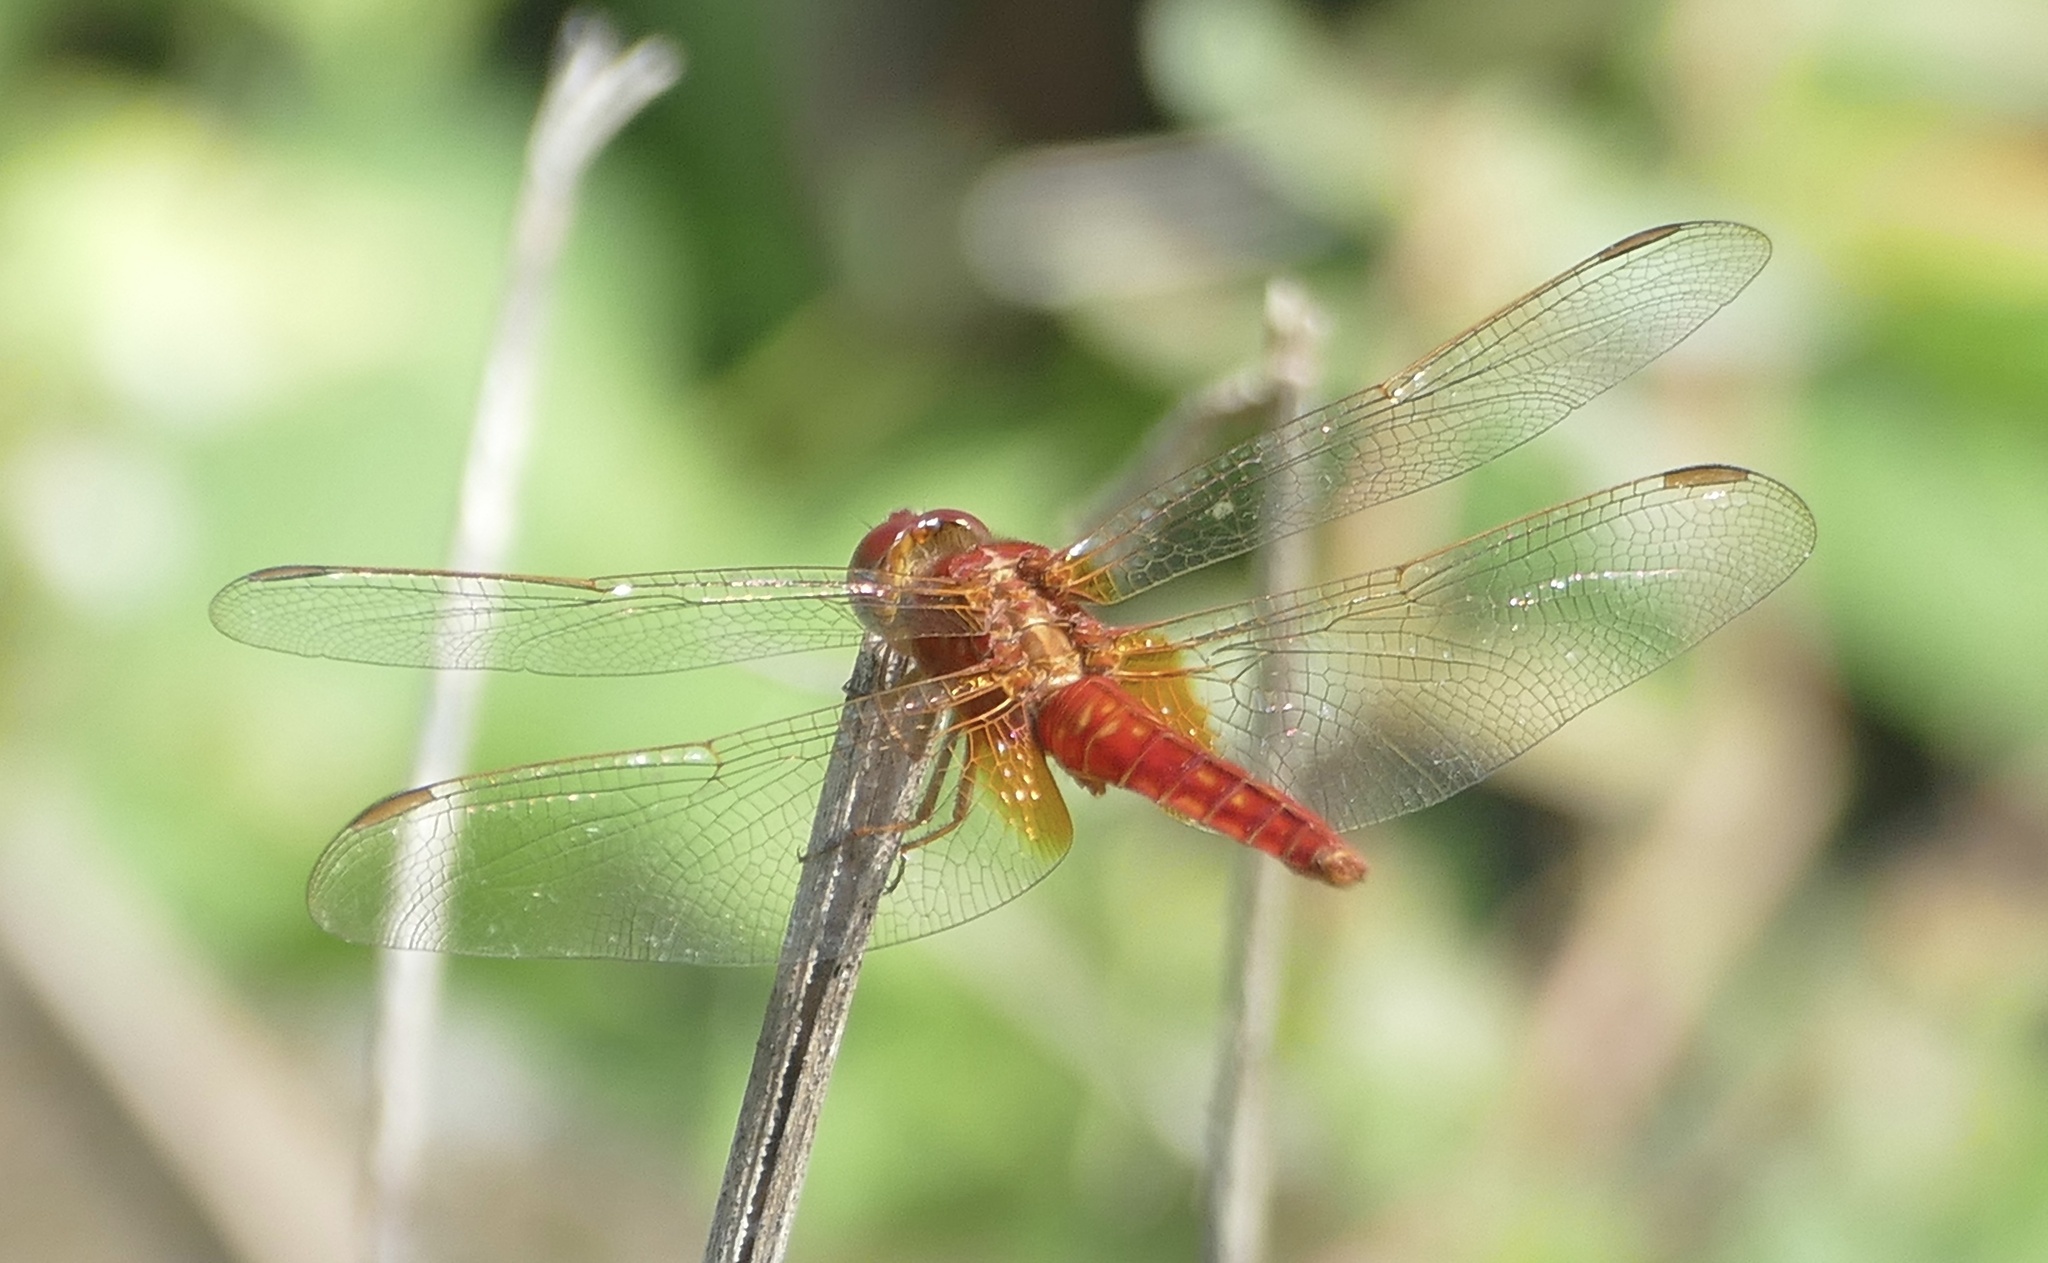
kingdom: Animalia
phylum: Arthropoda
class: Insecta
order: Odonata
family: Libellulidae
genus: Crocothemis
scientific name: Crocothemis servilia
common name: Scarlet skimmer
